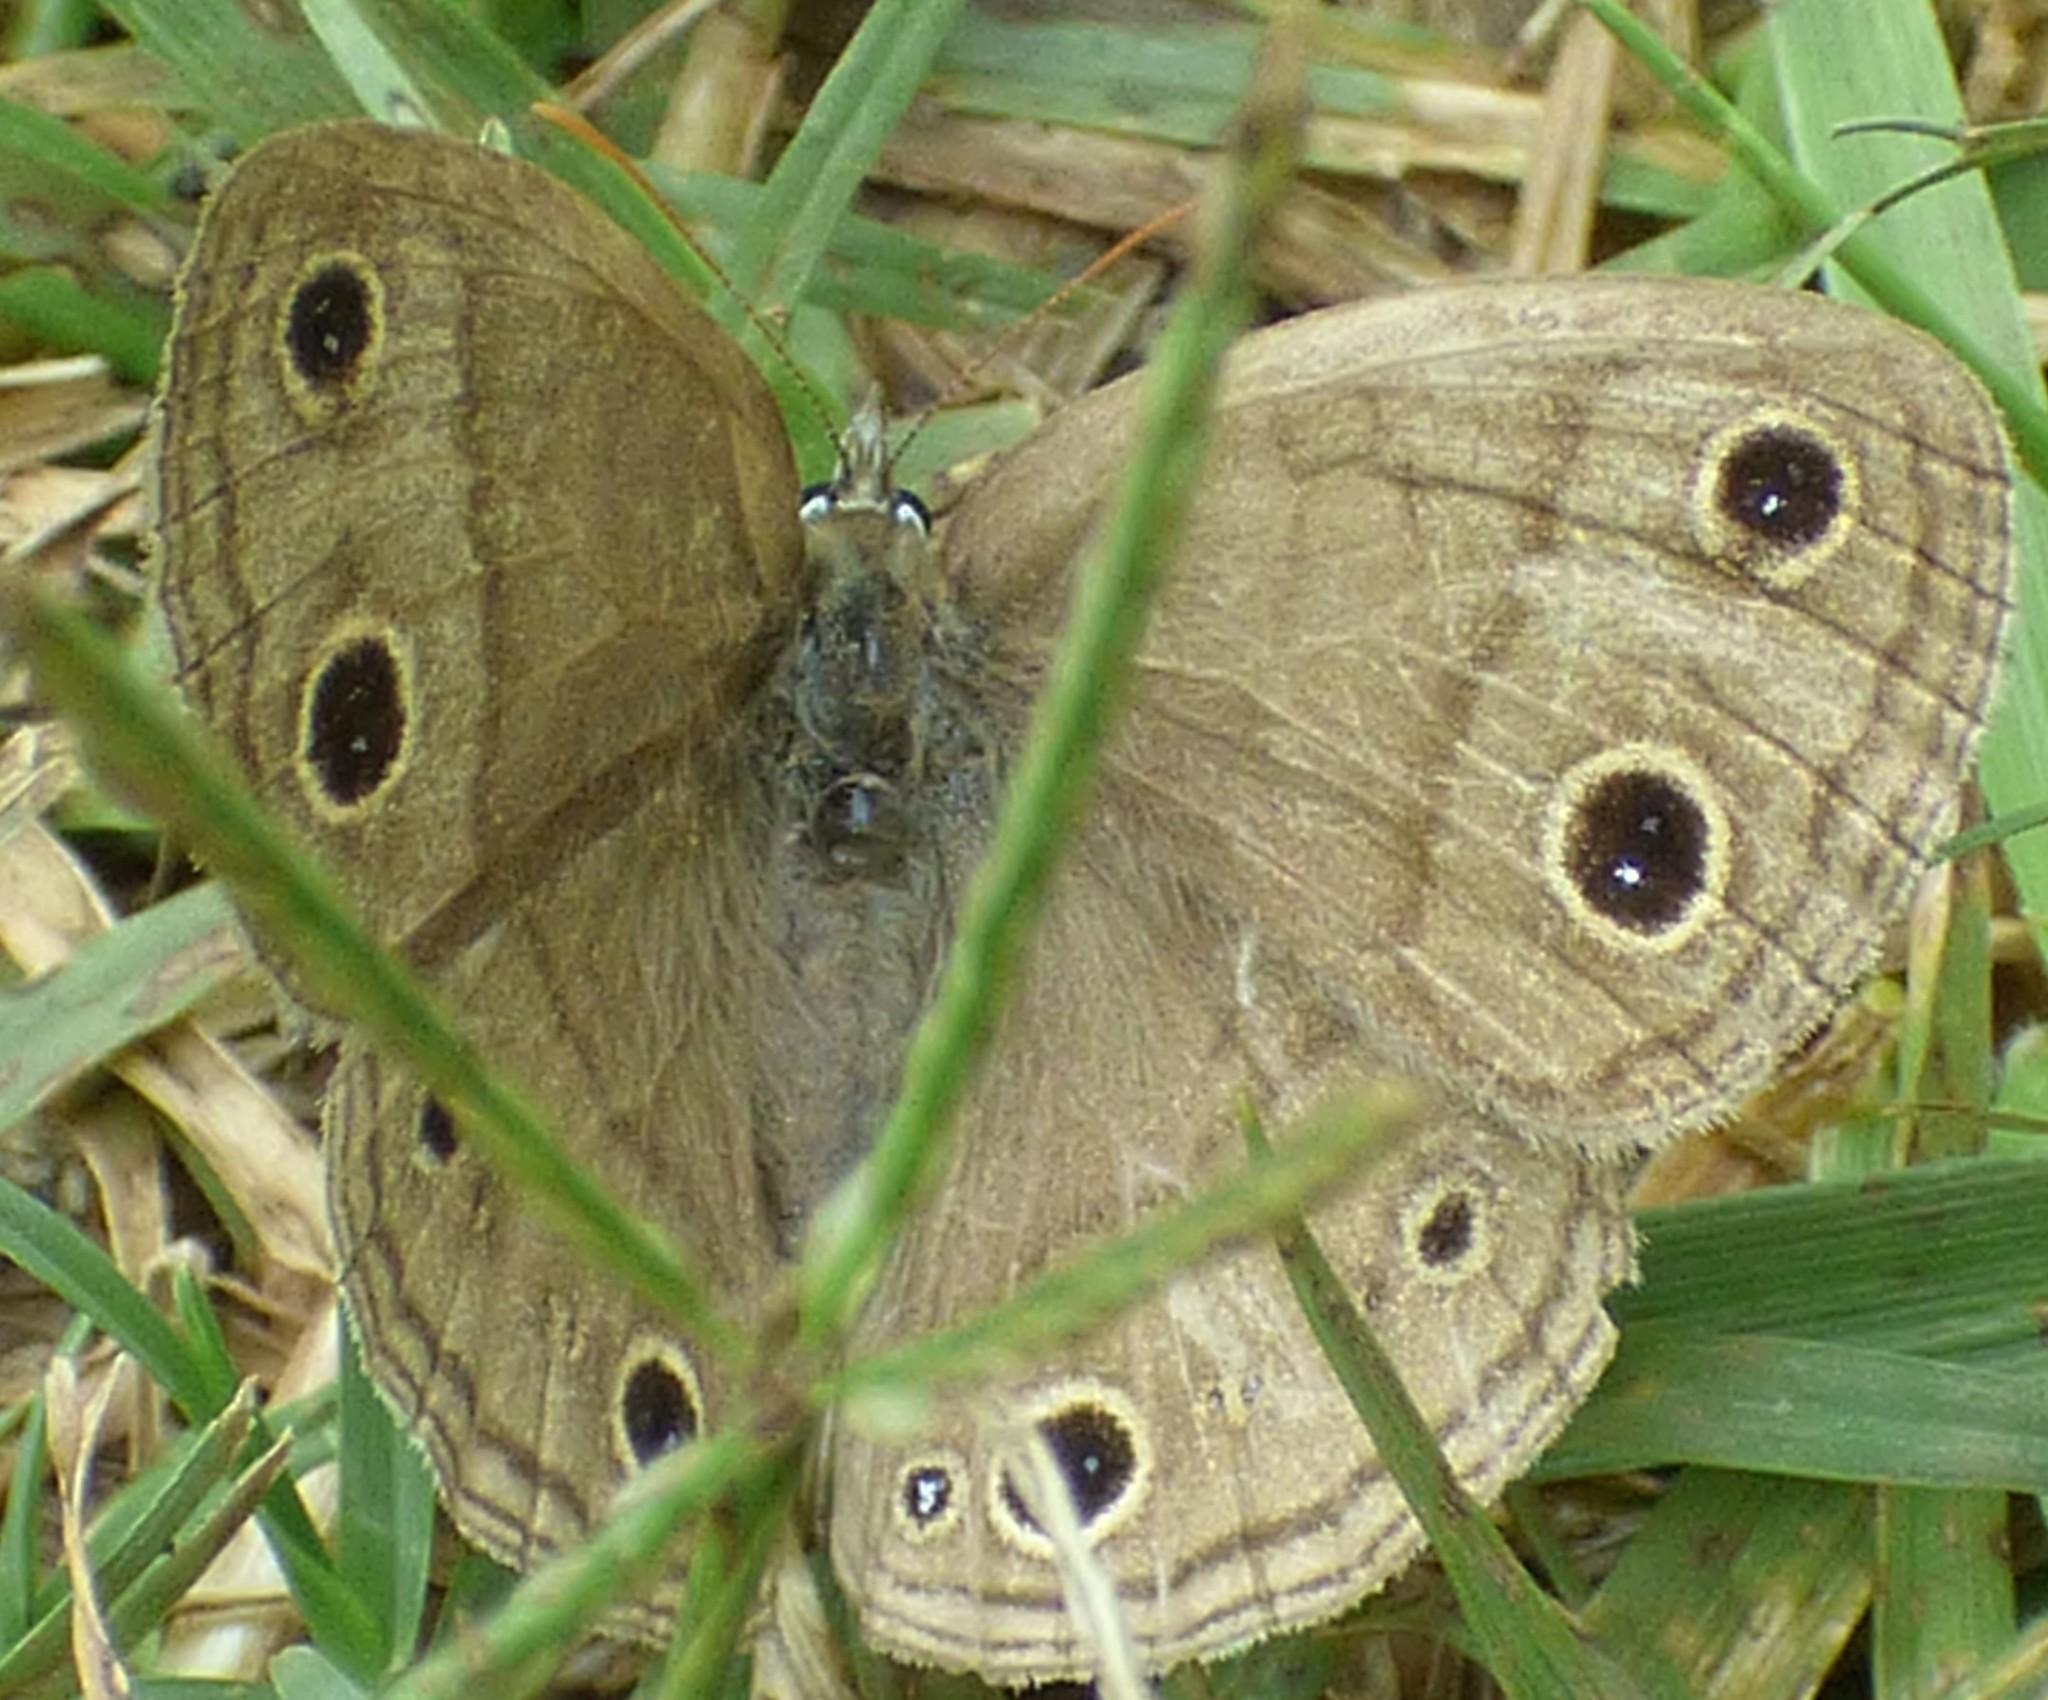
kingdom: Animalia
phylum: Arthropoda
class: Insecta
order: Lepidoptera
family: Nymphalidae
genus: Euptychia
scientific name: Euptychia cymela
